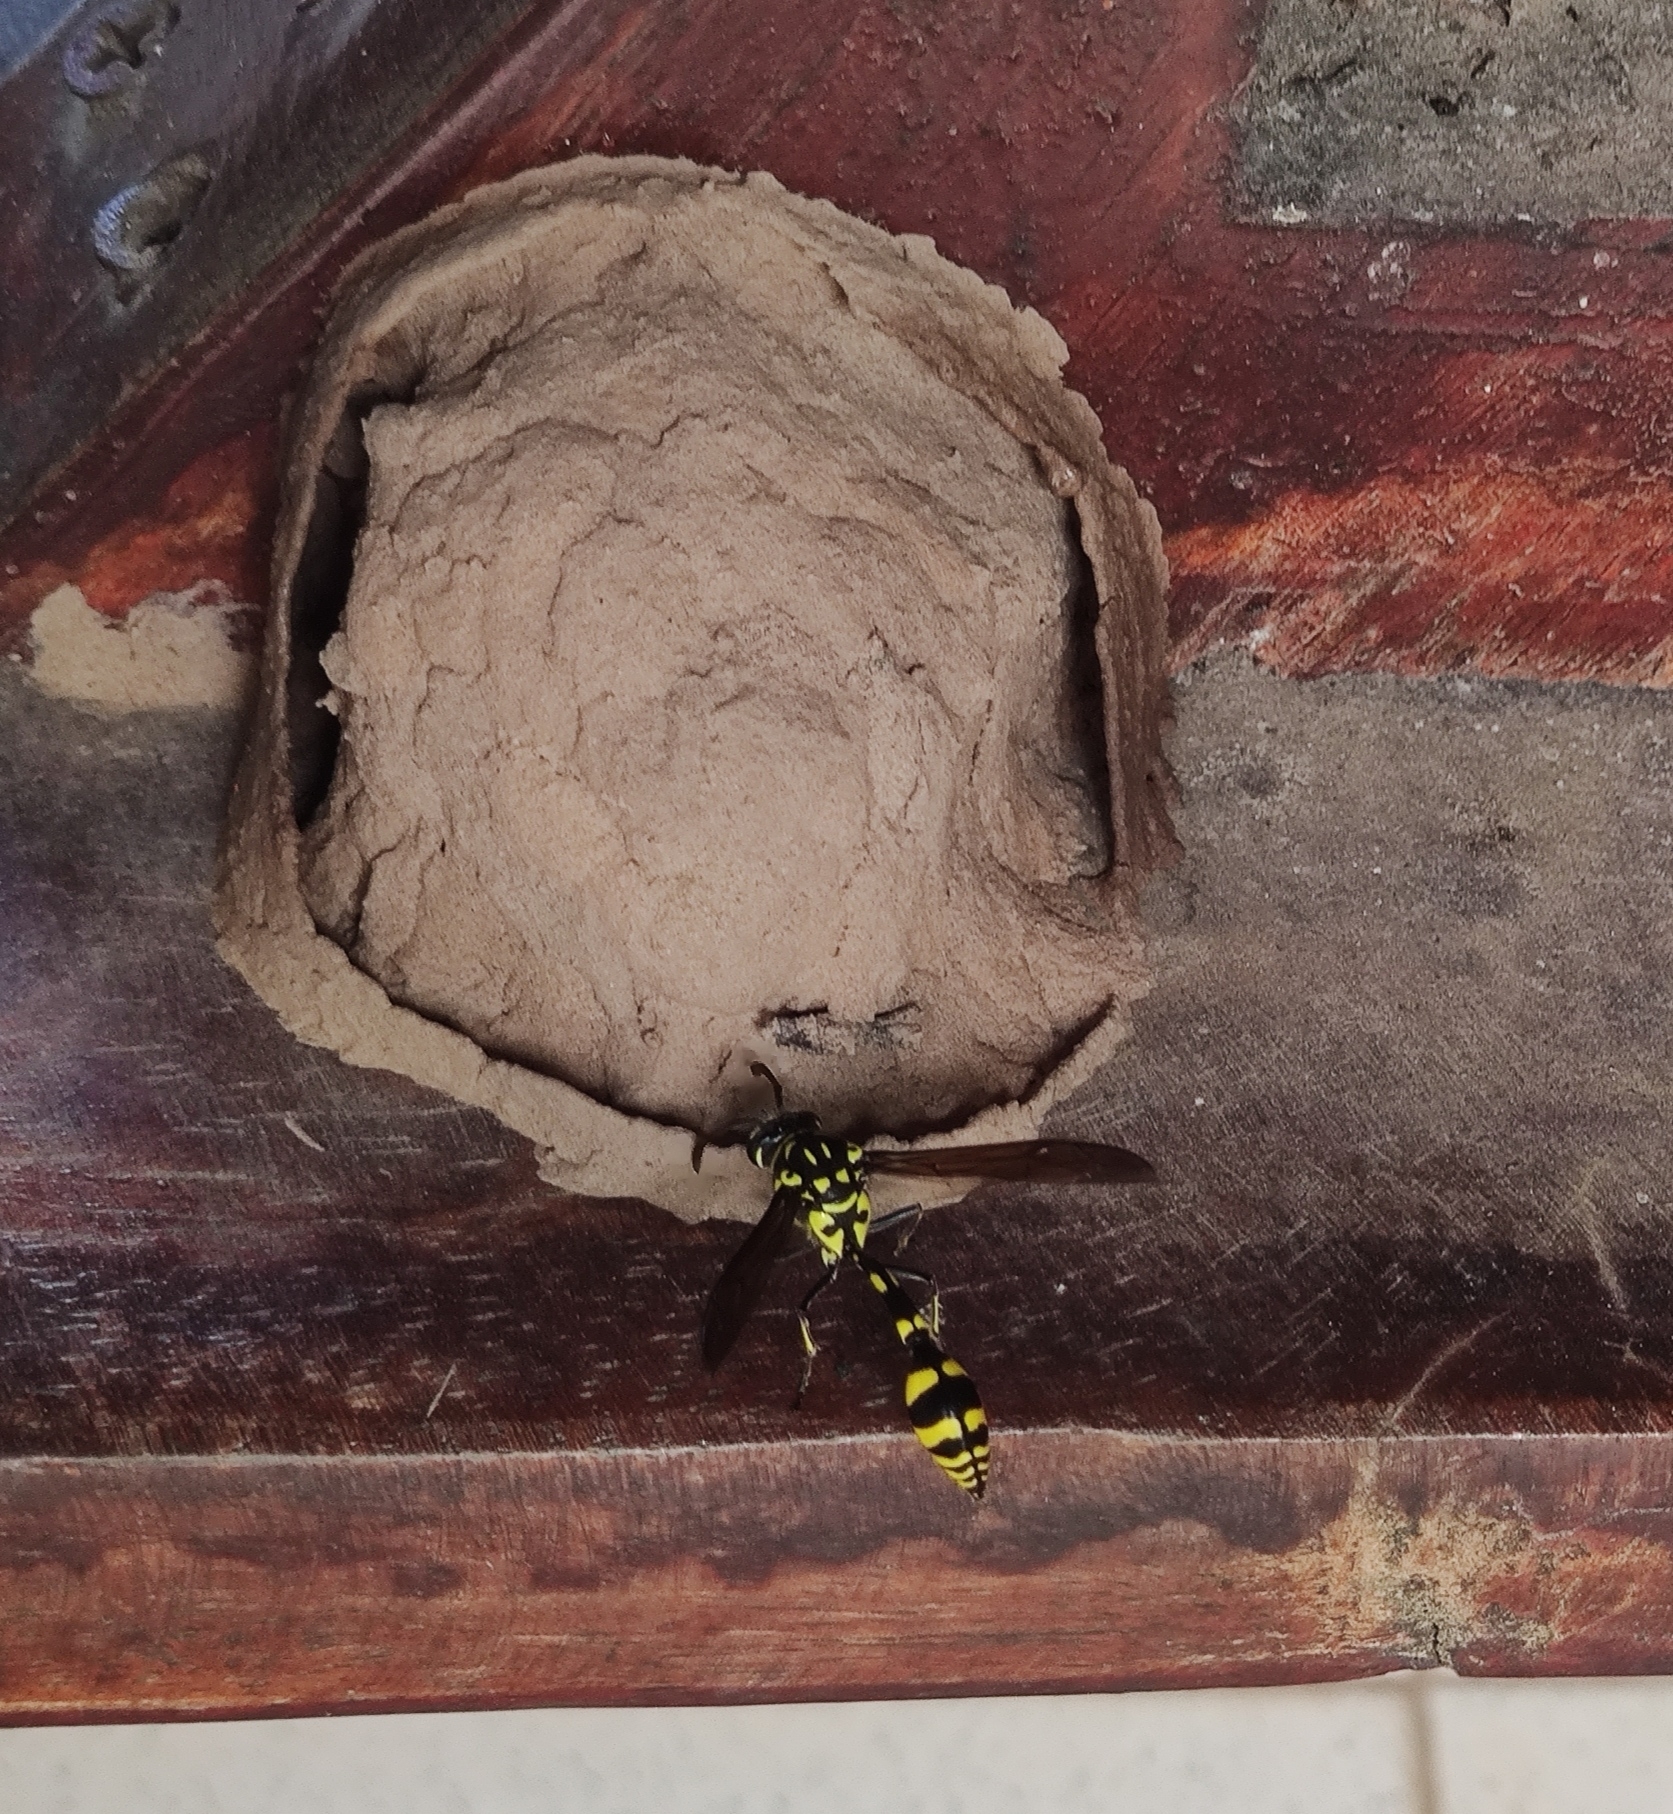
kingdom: Animalia
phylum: Arthropoda
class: Insecta
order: Hymenoptera
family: Eumenidae
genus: Phimenes
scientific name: Phimenes flavopictus
